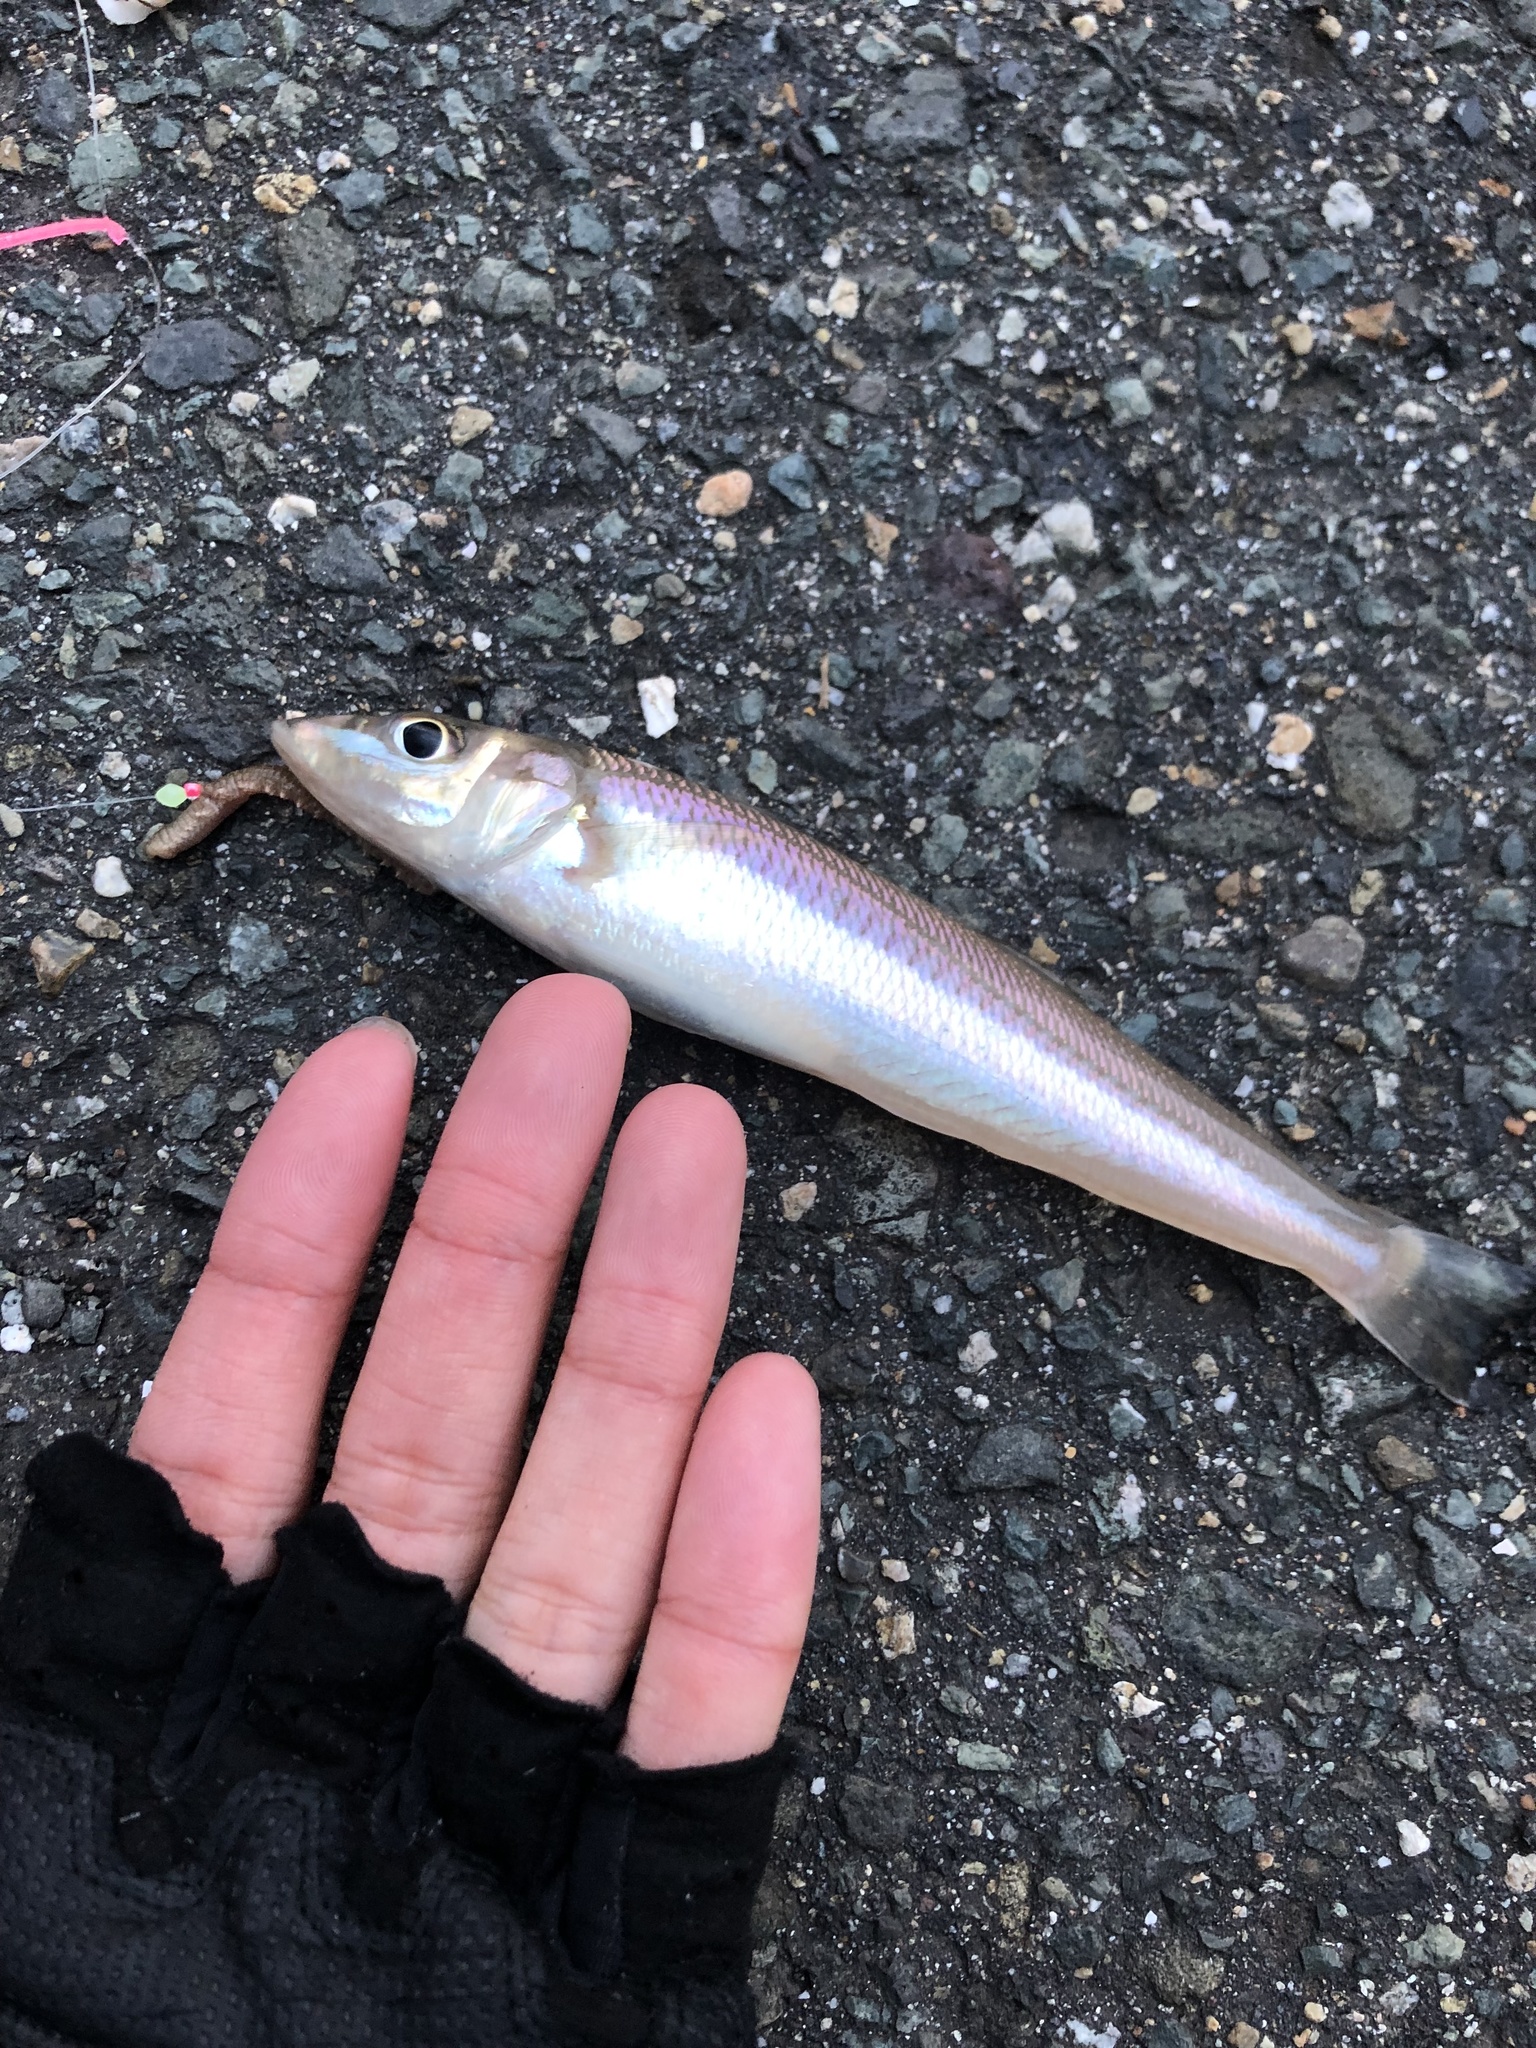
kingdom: Animalia
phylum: Chordata
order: Perciformes
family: Sillaginidae
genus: Sillago
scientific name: Sillago japonica
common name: Japanese sillago
